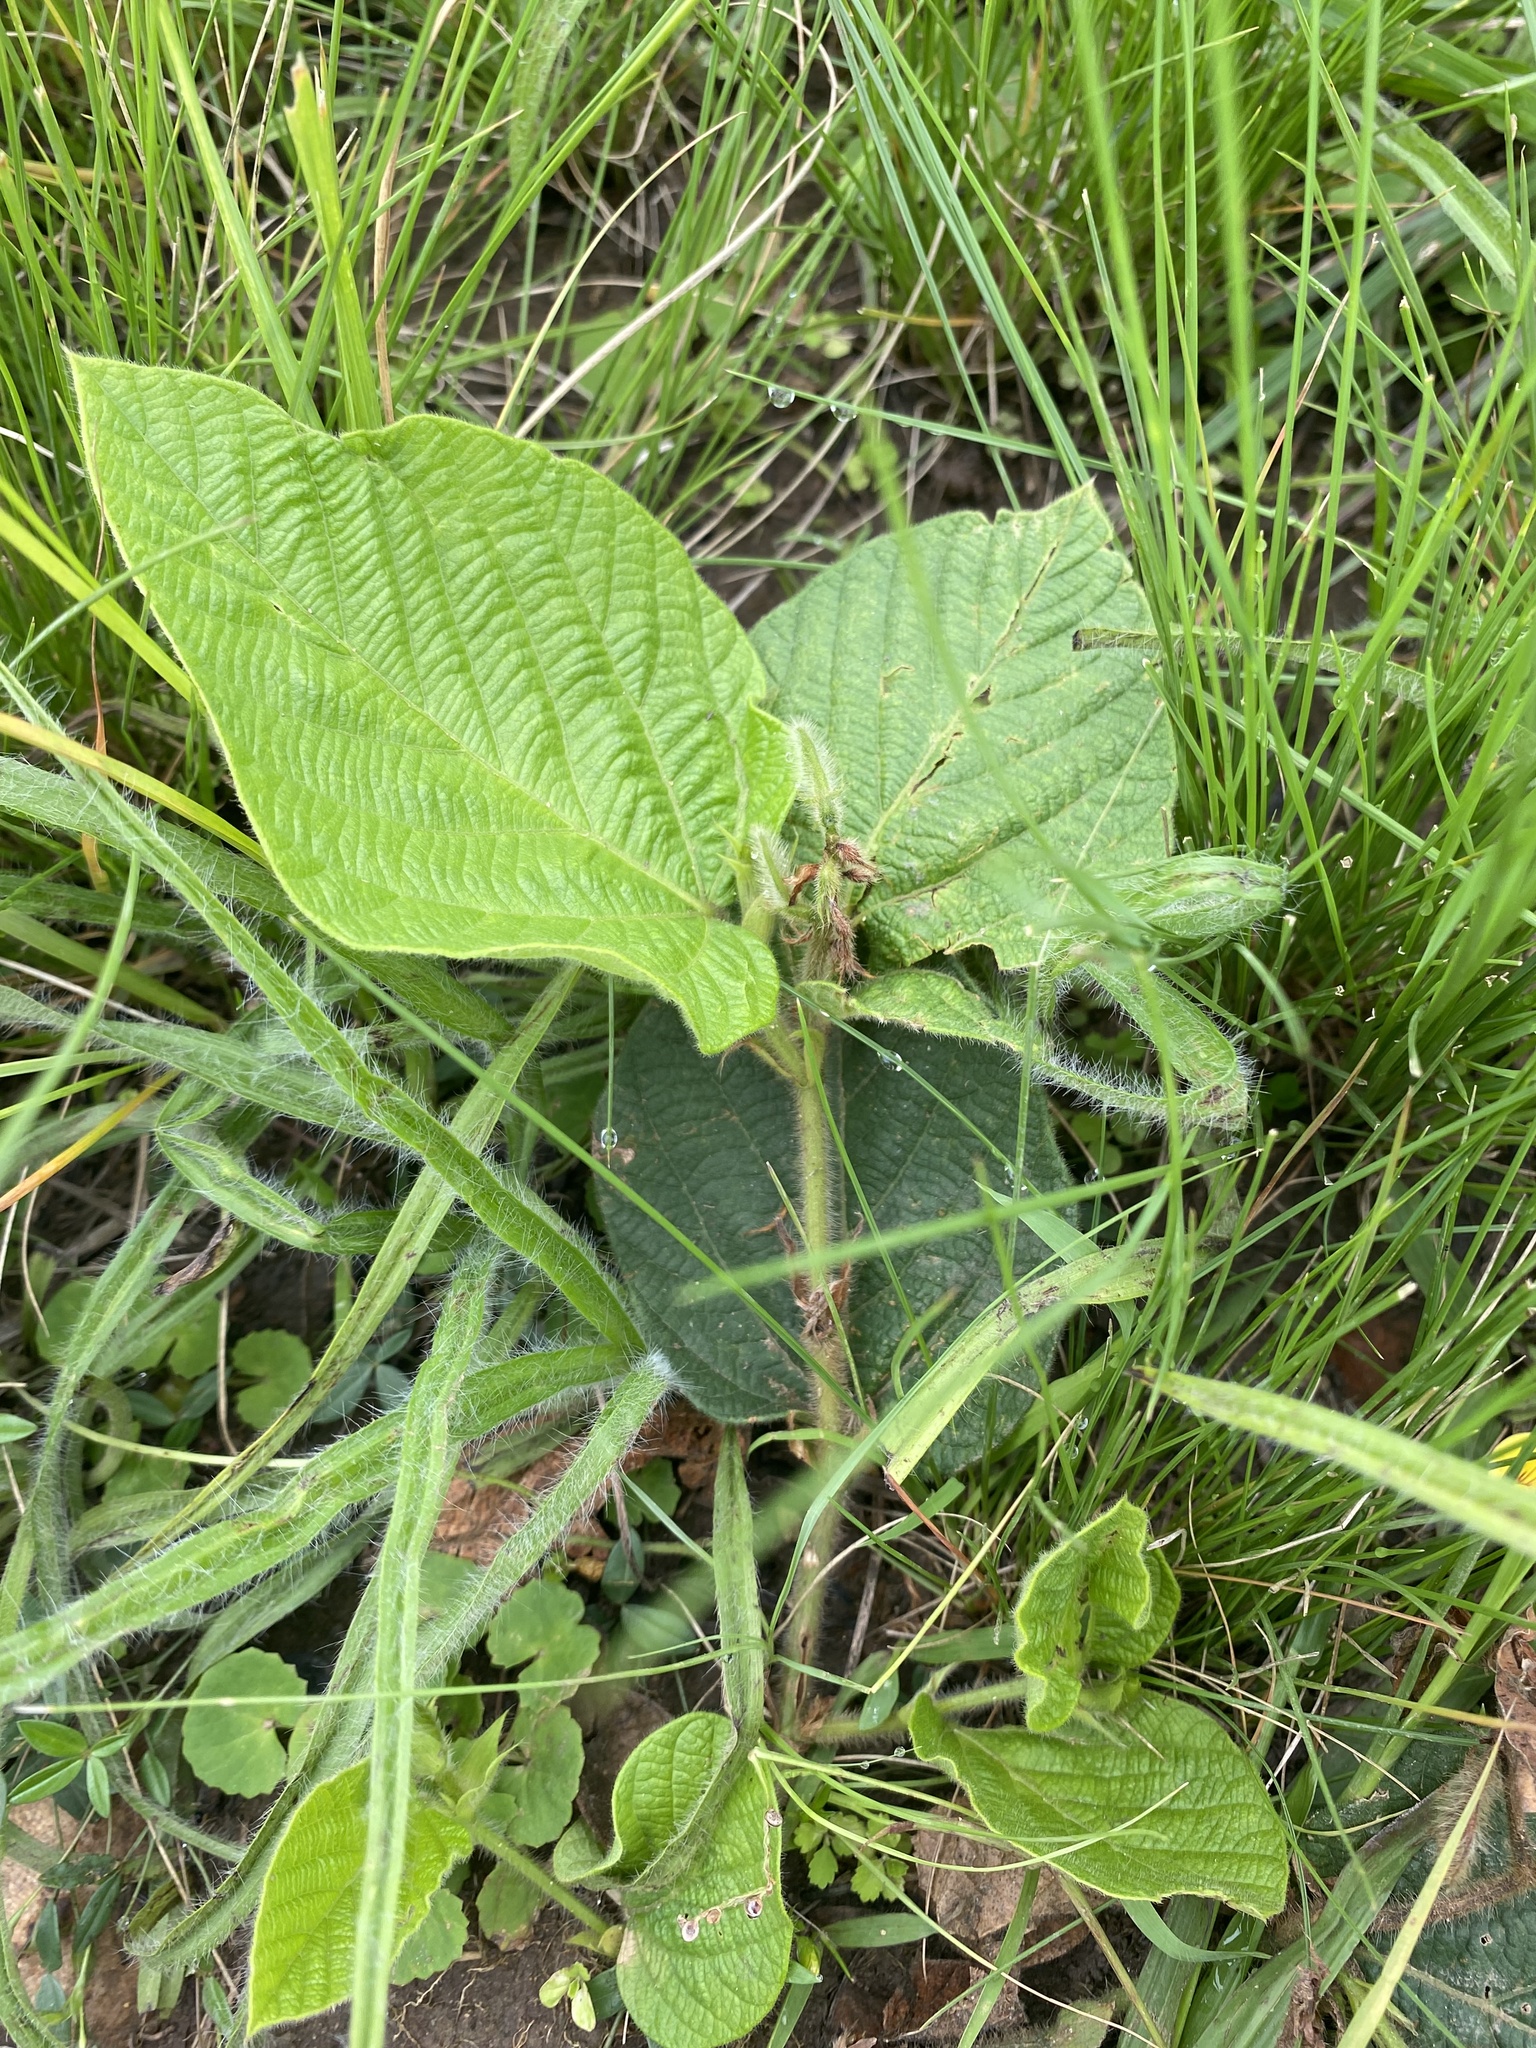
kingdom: Plantae
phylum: Tracheophyta
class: Magnoliopsida
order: Fabales
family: Fabaceae
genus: Eriosema
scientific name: Eriosema cordatum
